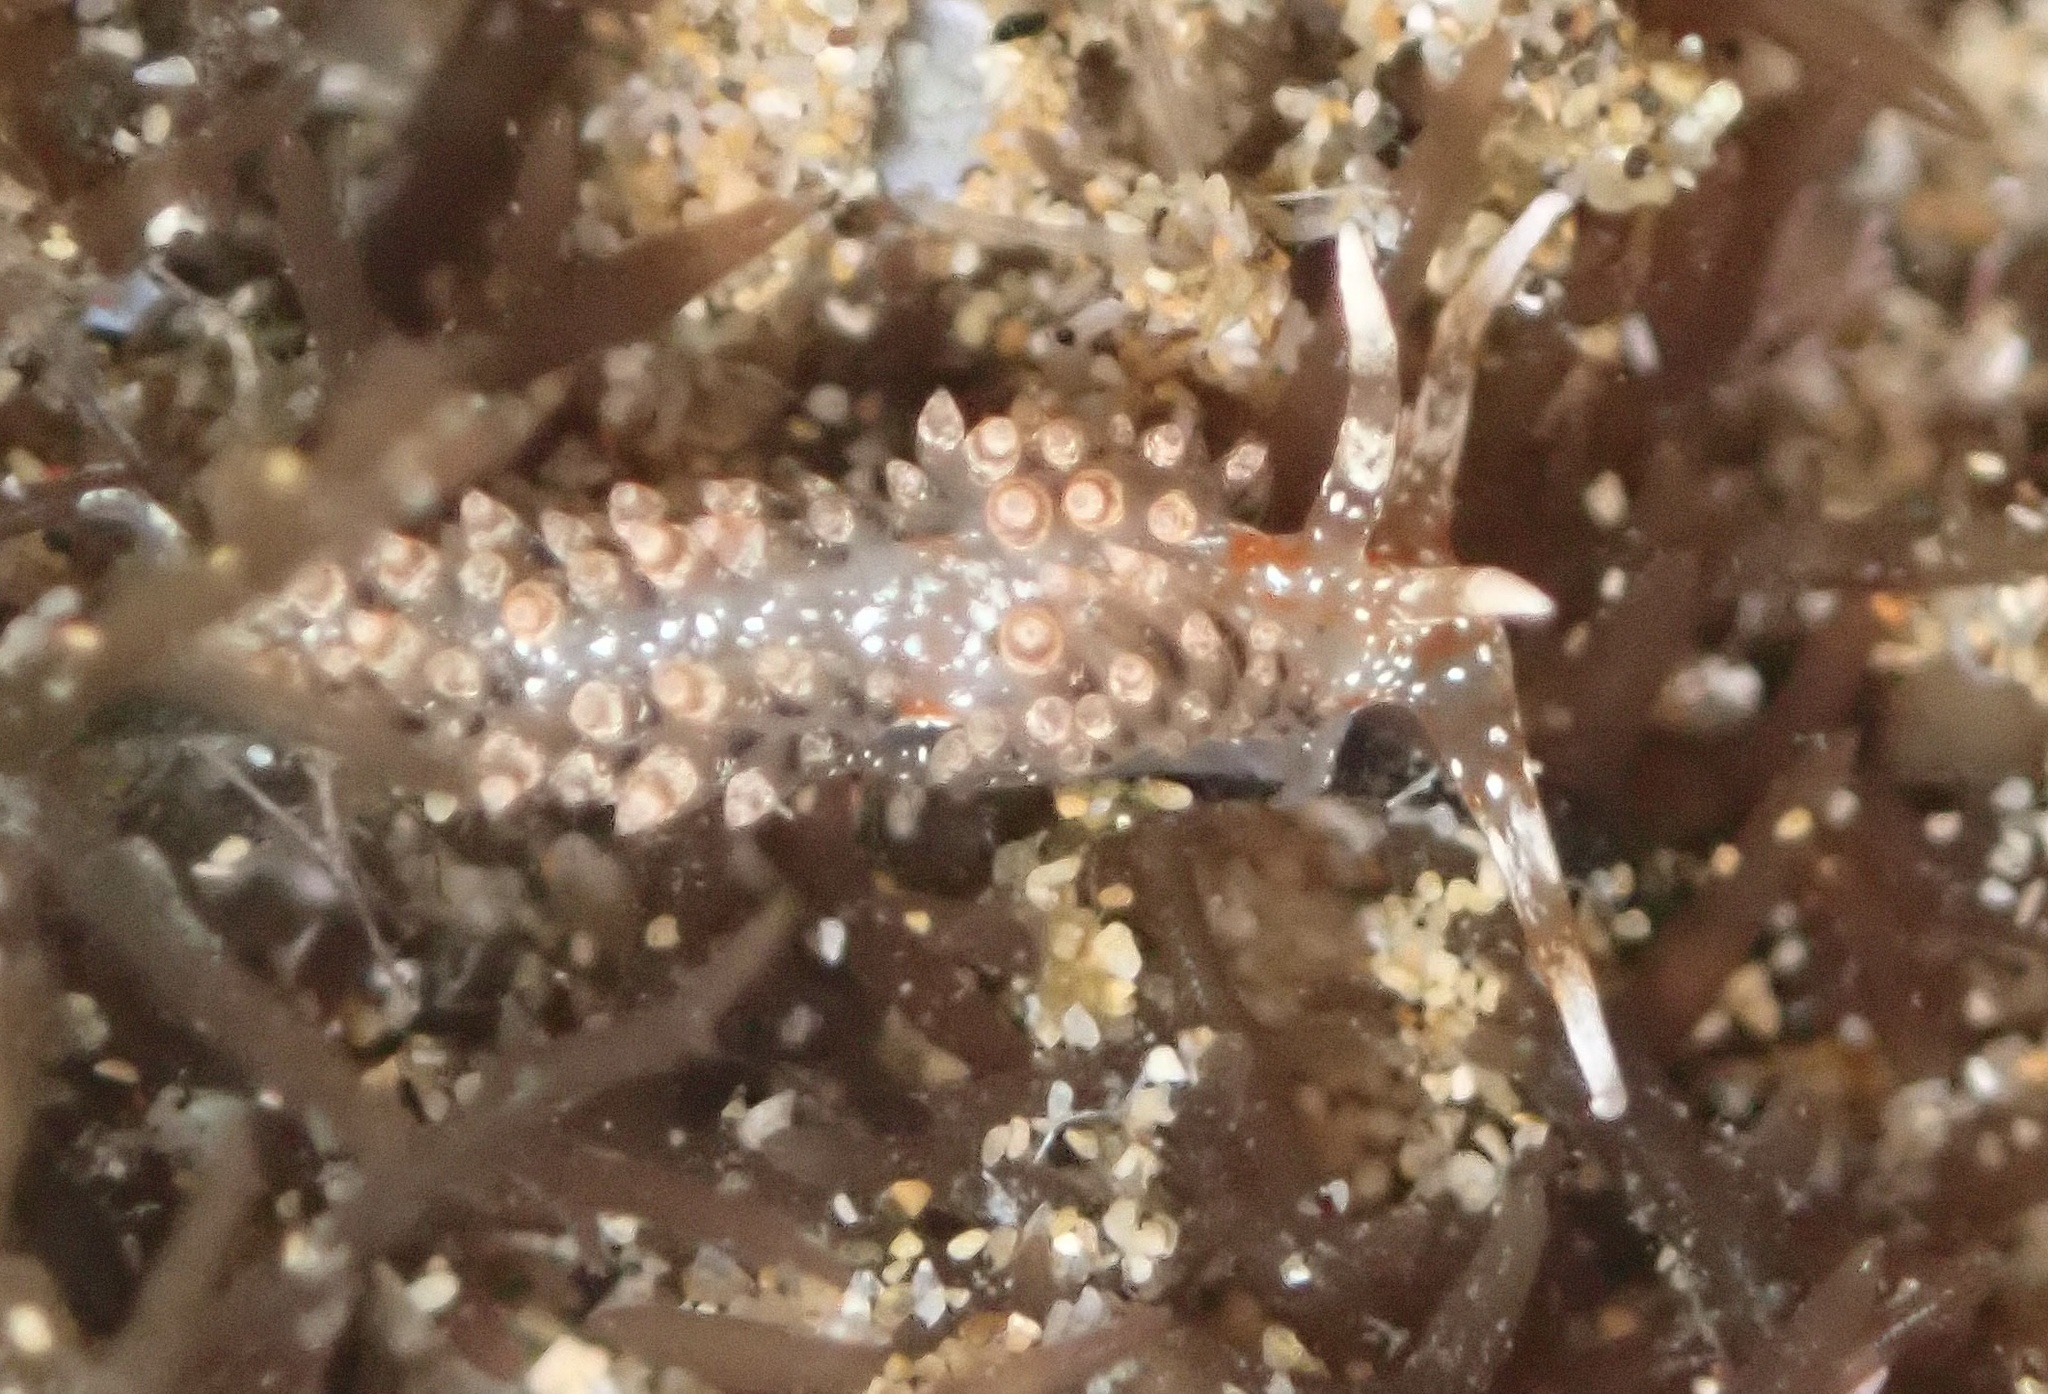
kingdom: Animalia
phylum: Mollusca
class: Gastropoda
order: Nudibranchia
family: Facelinidae
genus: Phidiana
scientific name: Phidiana semidecora
